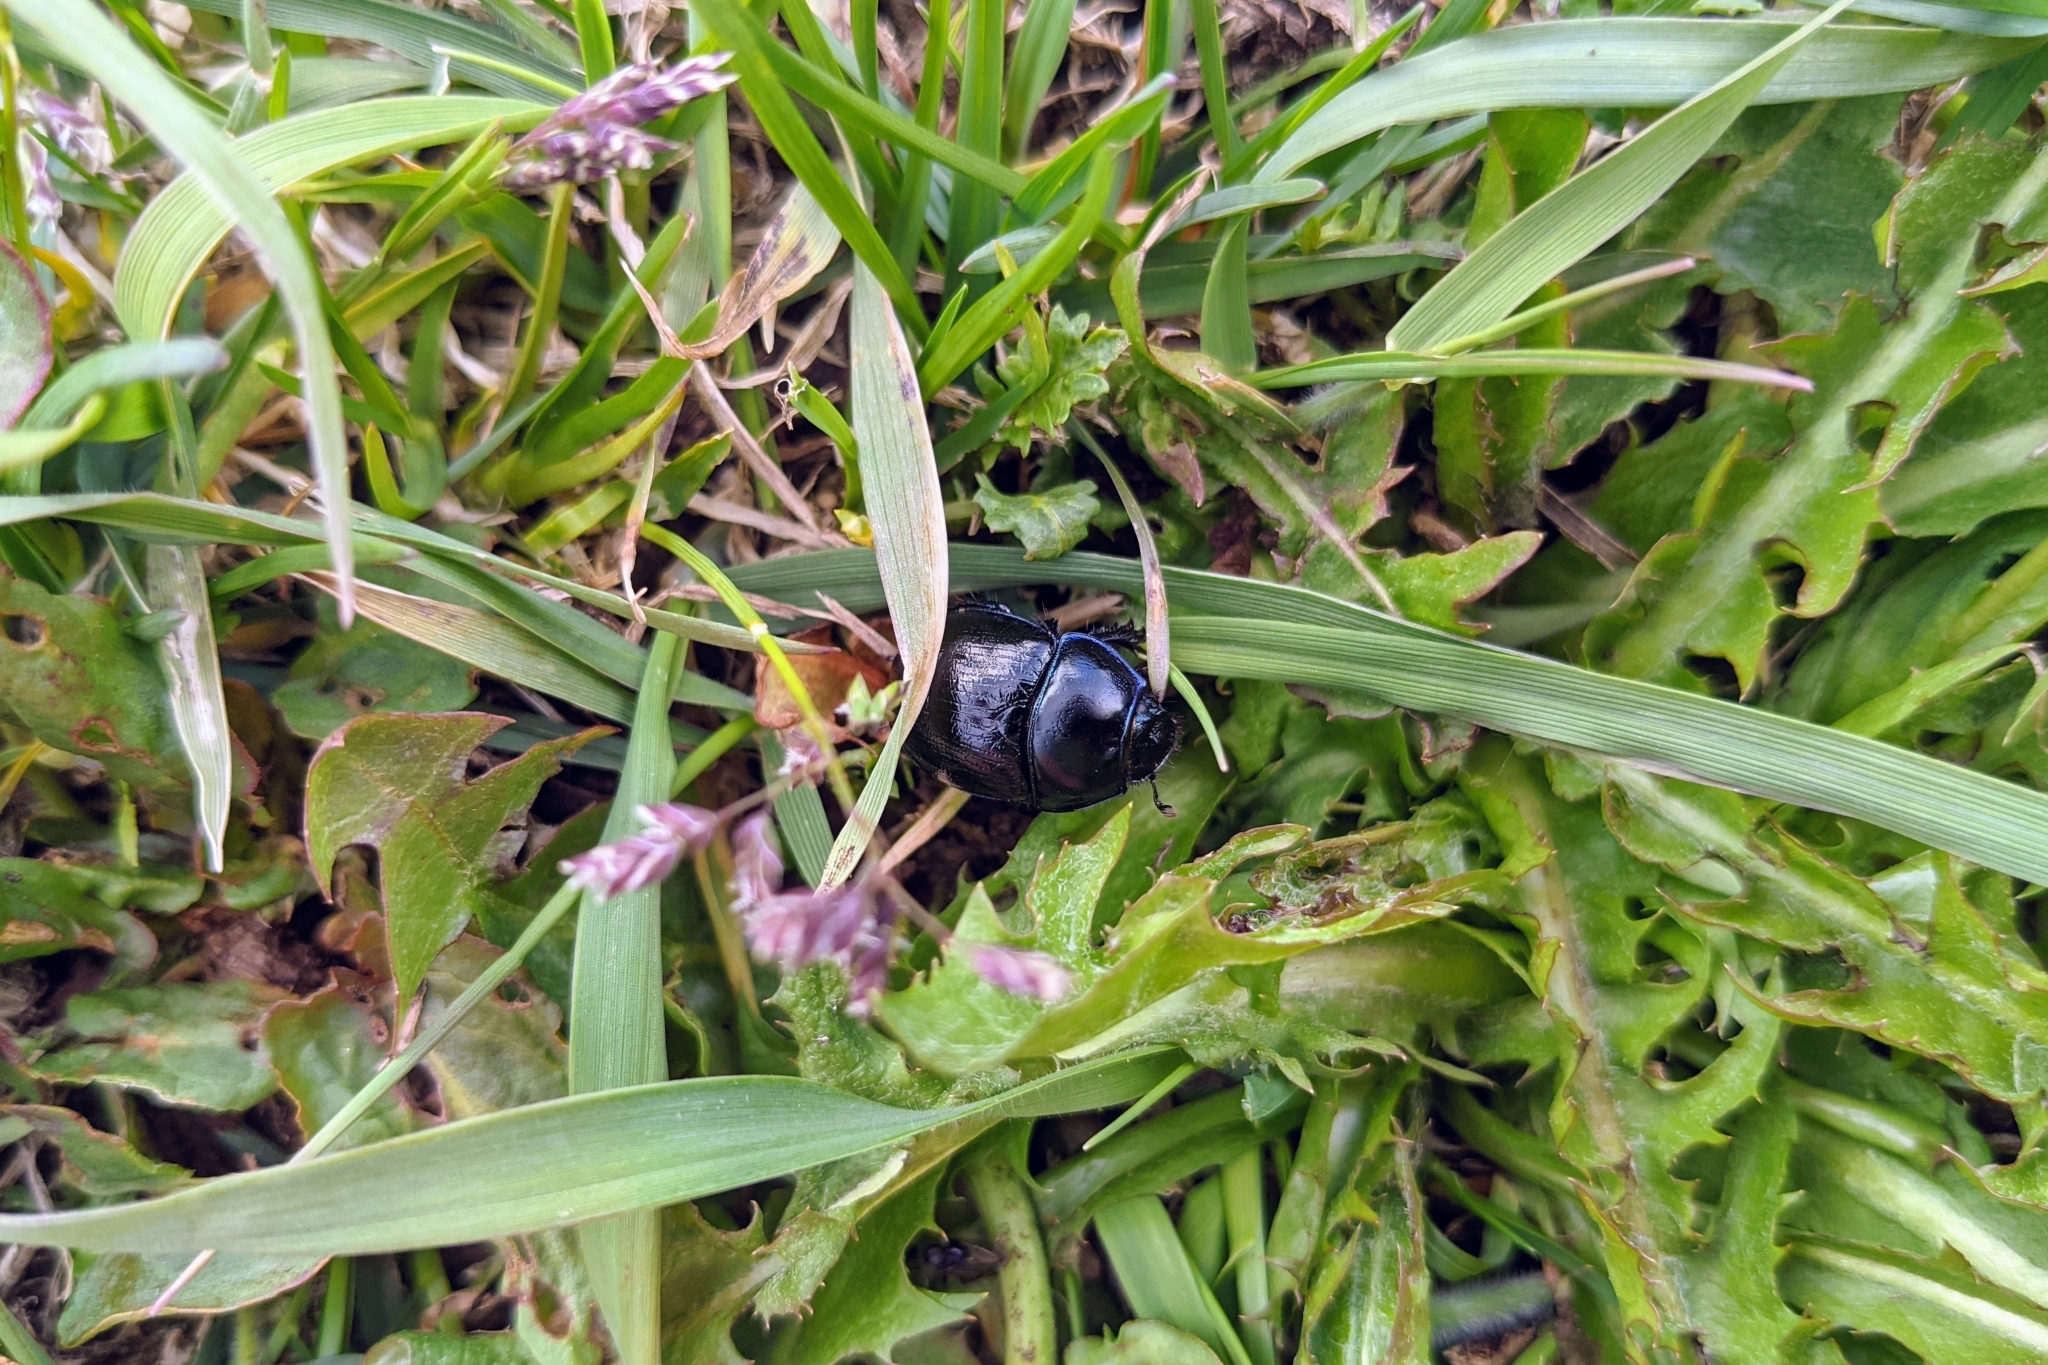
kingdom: Animalia
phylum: Arthropoda
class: Insecta
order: Coleoptera
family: Geotrupidae
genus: Anoplotrupes
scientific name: Anoplotrupes stercorosus
